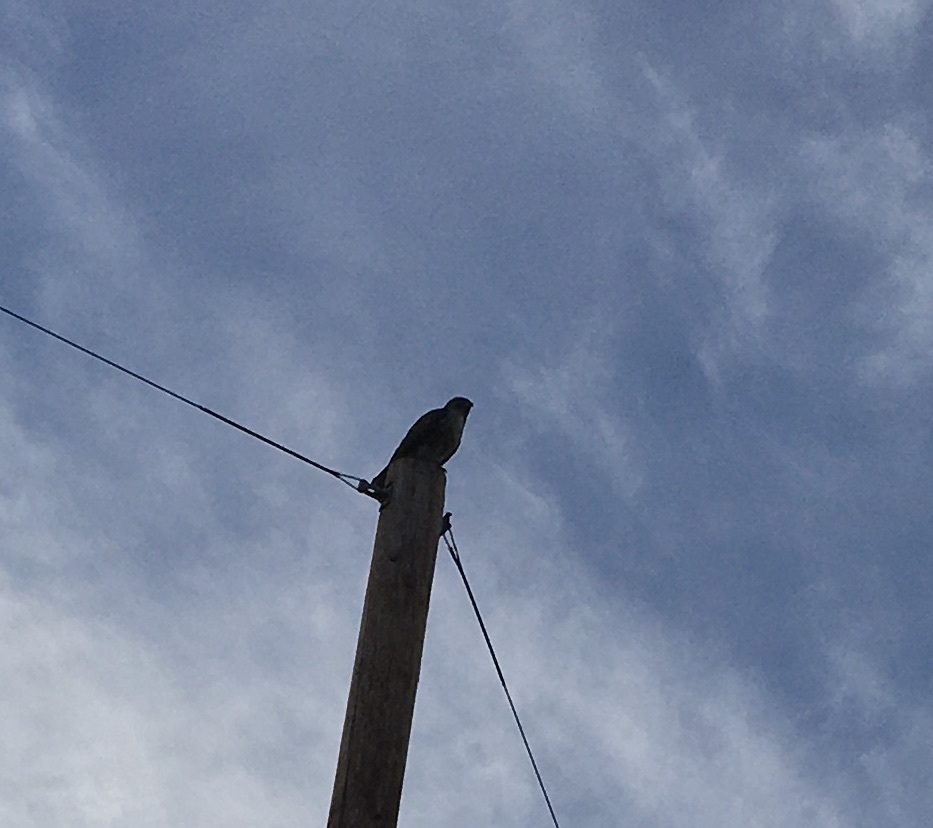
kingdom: Animalia
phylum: Chordata
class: Aves
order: Accipitriformes
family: Accipitridae
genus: Buteo
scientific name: Buteo jamaicensis
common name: Red-tailed hawk
